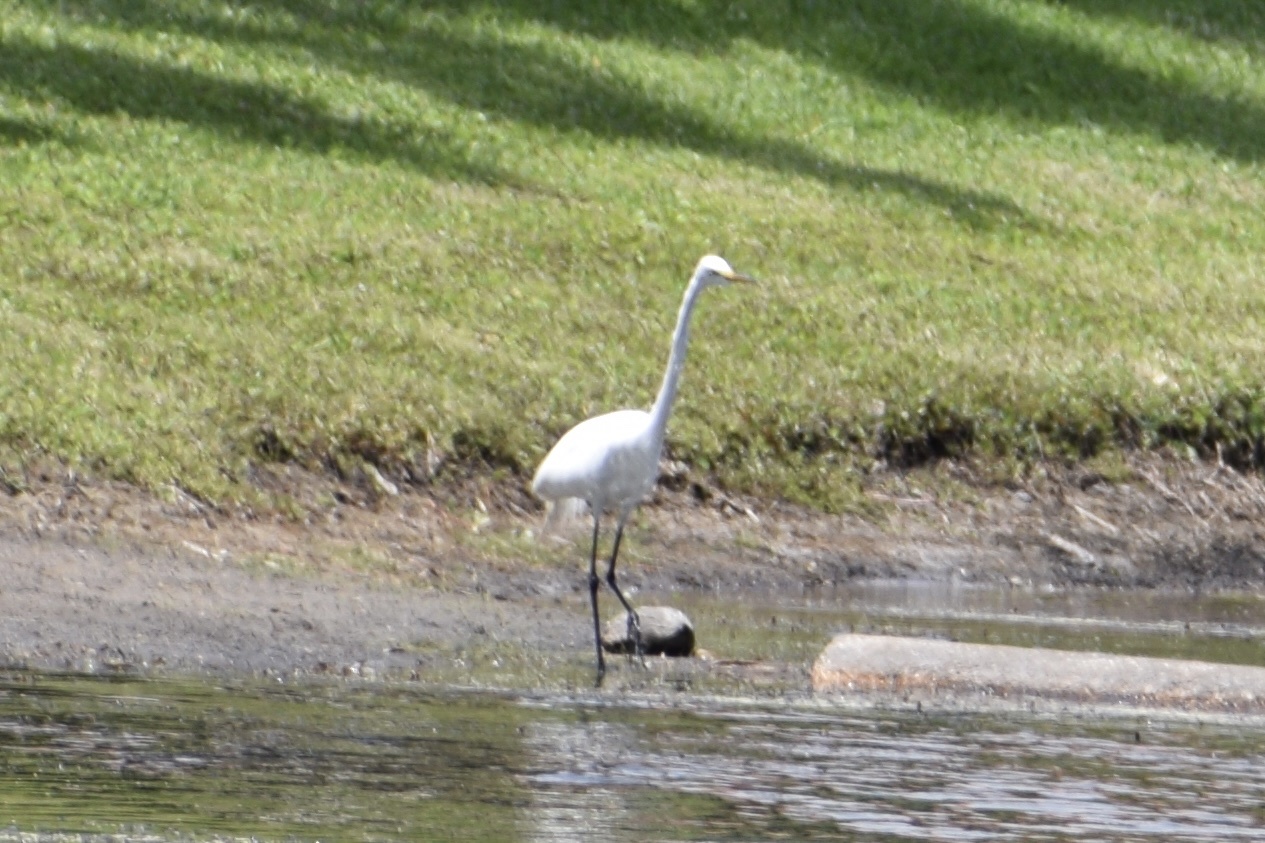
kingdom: Animalia
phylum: Chordata
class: Aves
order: Pelecaniformes
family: Ardeidae
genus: Ardea
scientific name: Ardea alba
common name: Great egret
